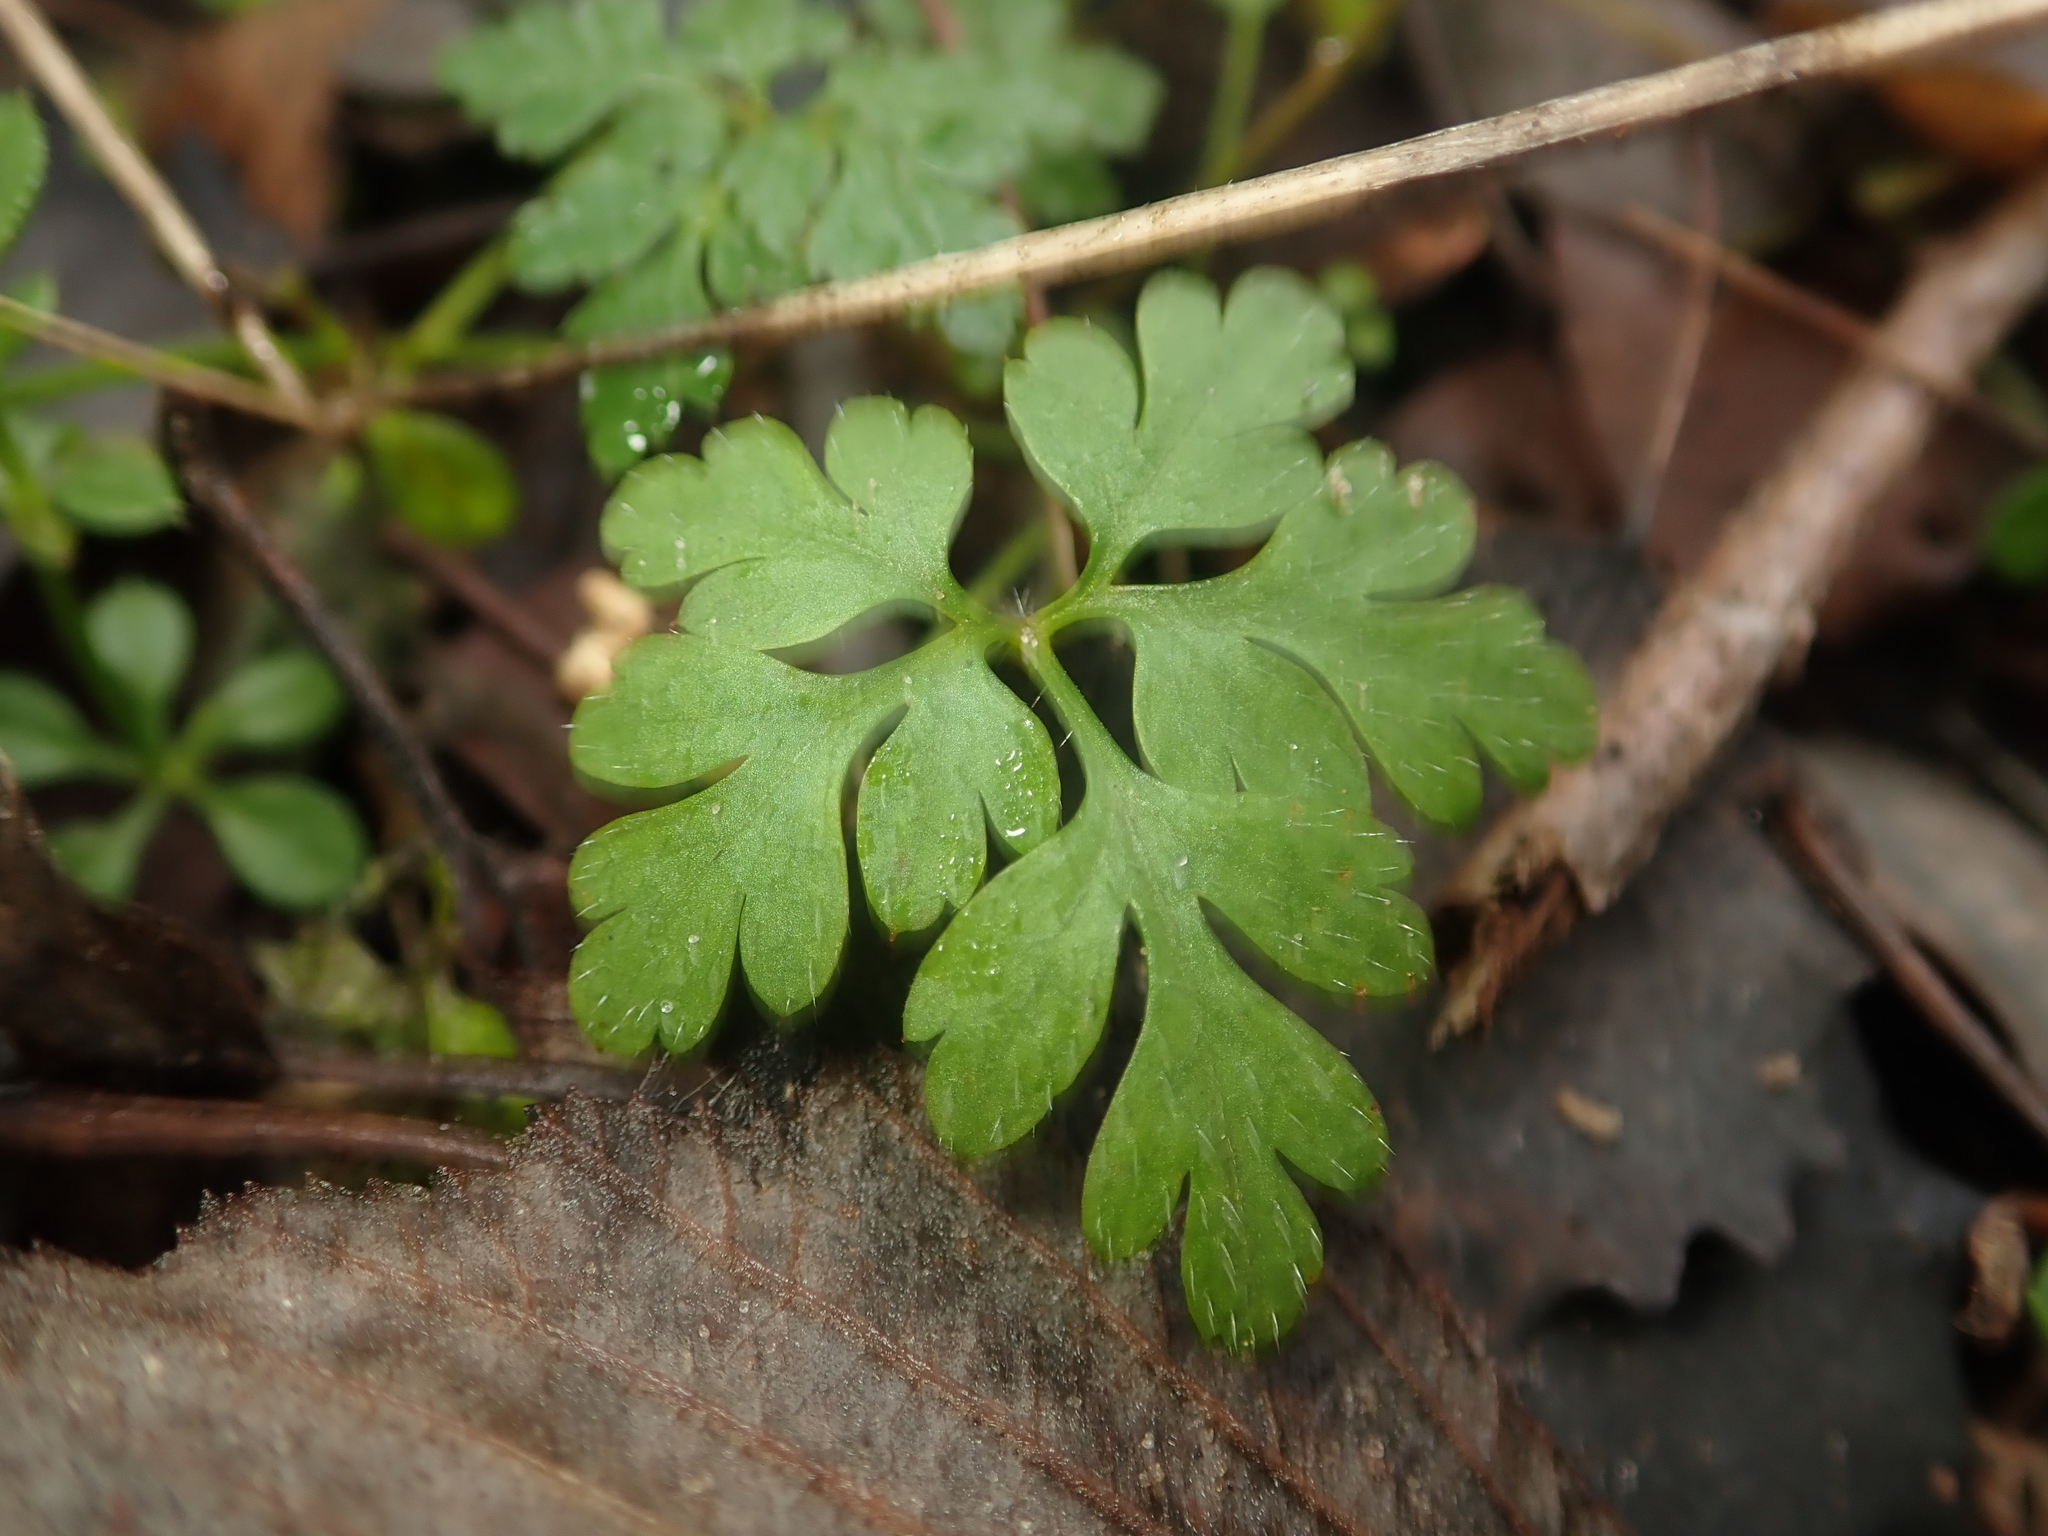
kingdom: Plantae
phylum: Tracheophyta
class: Magnoliopsida
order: Geraniales
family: Geraniaceae
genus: Geranium
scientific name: Geranium robertianum
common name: Herb-robert
